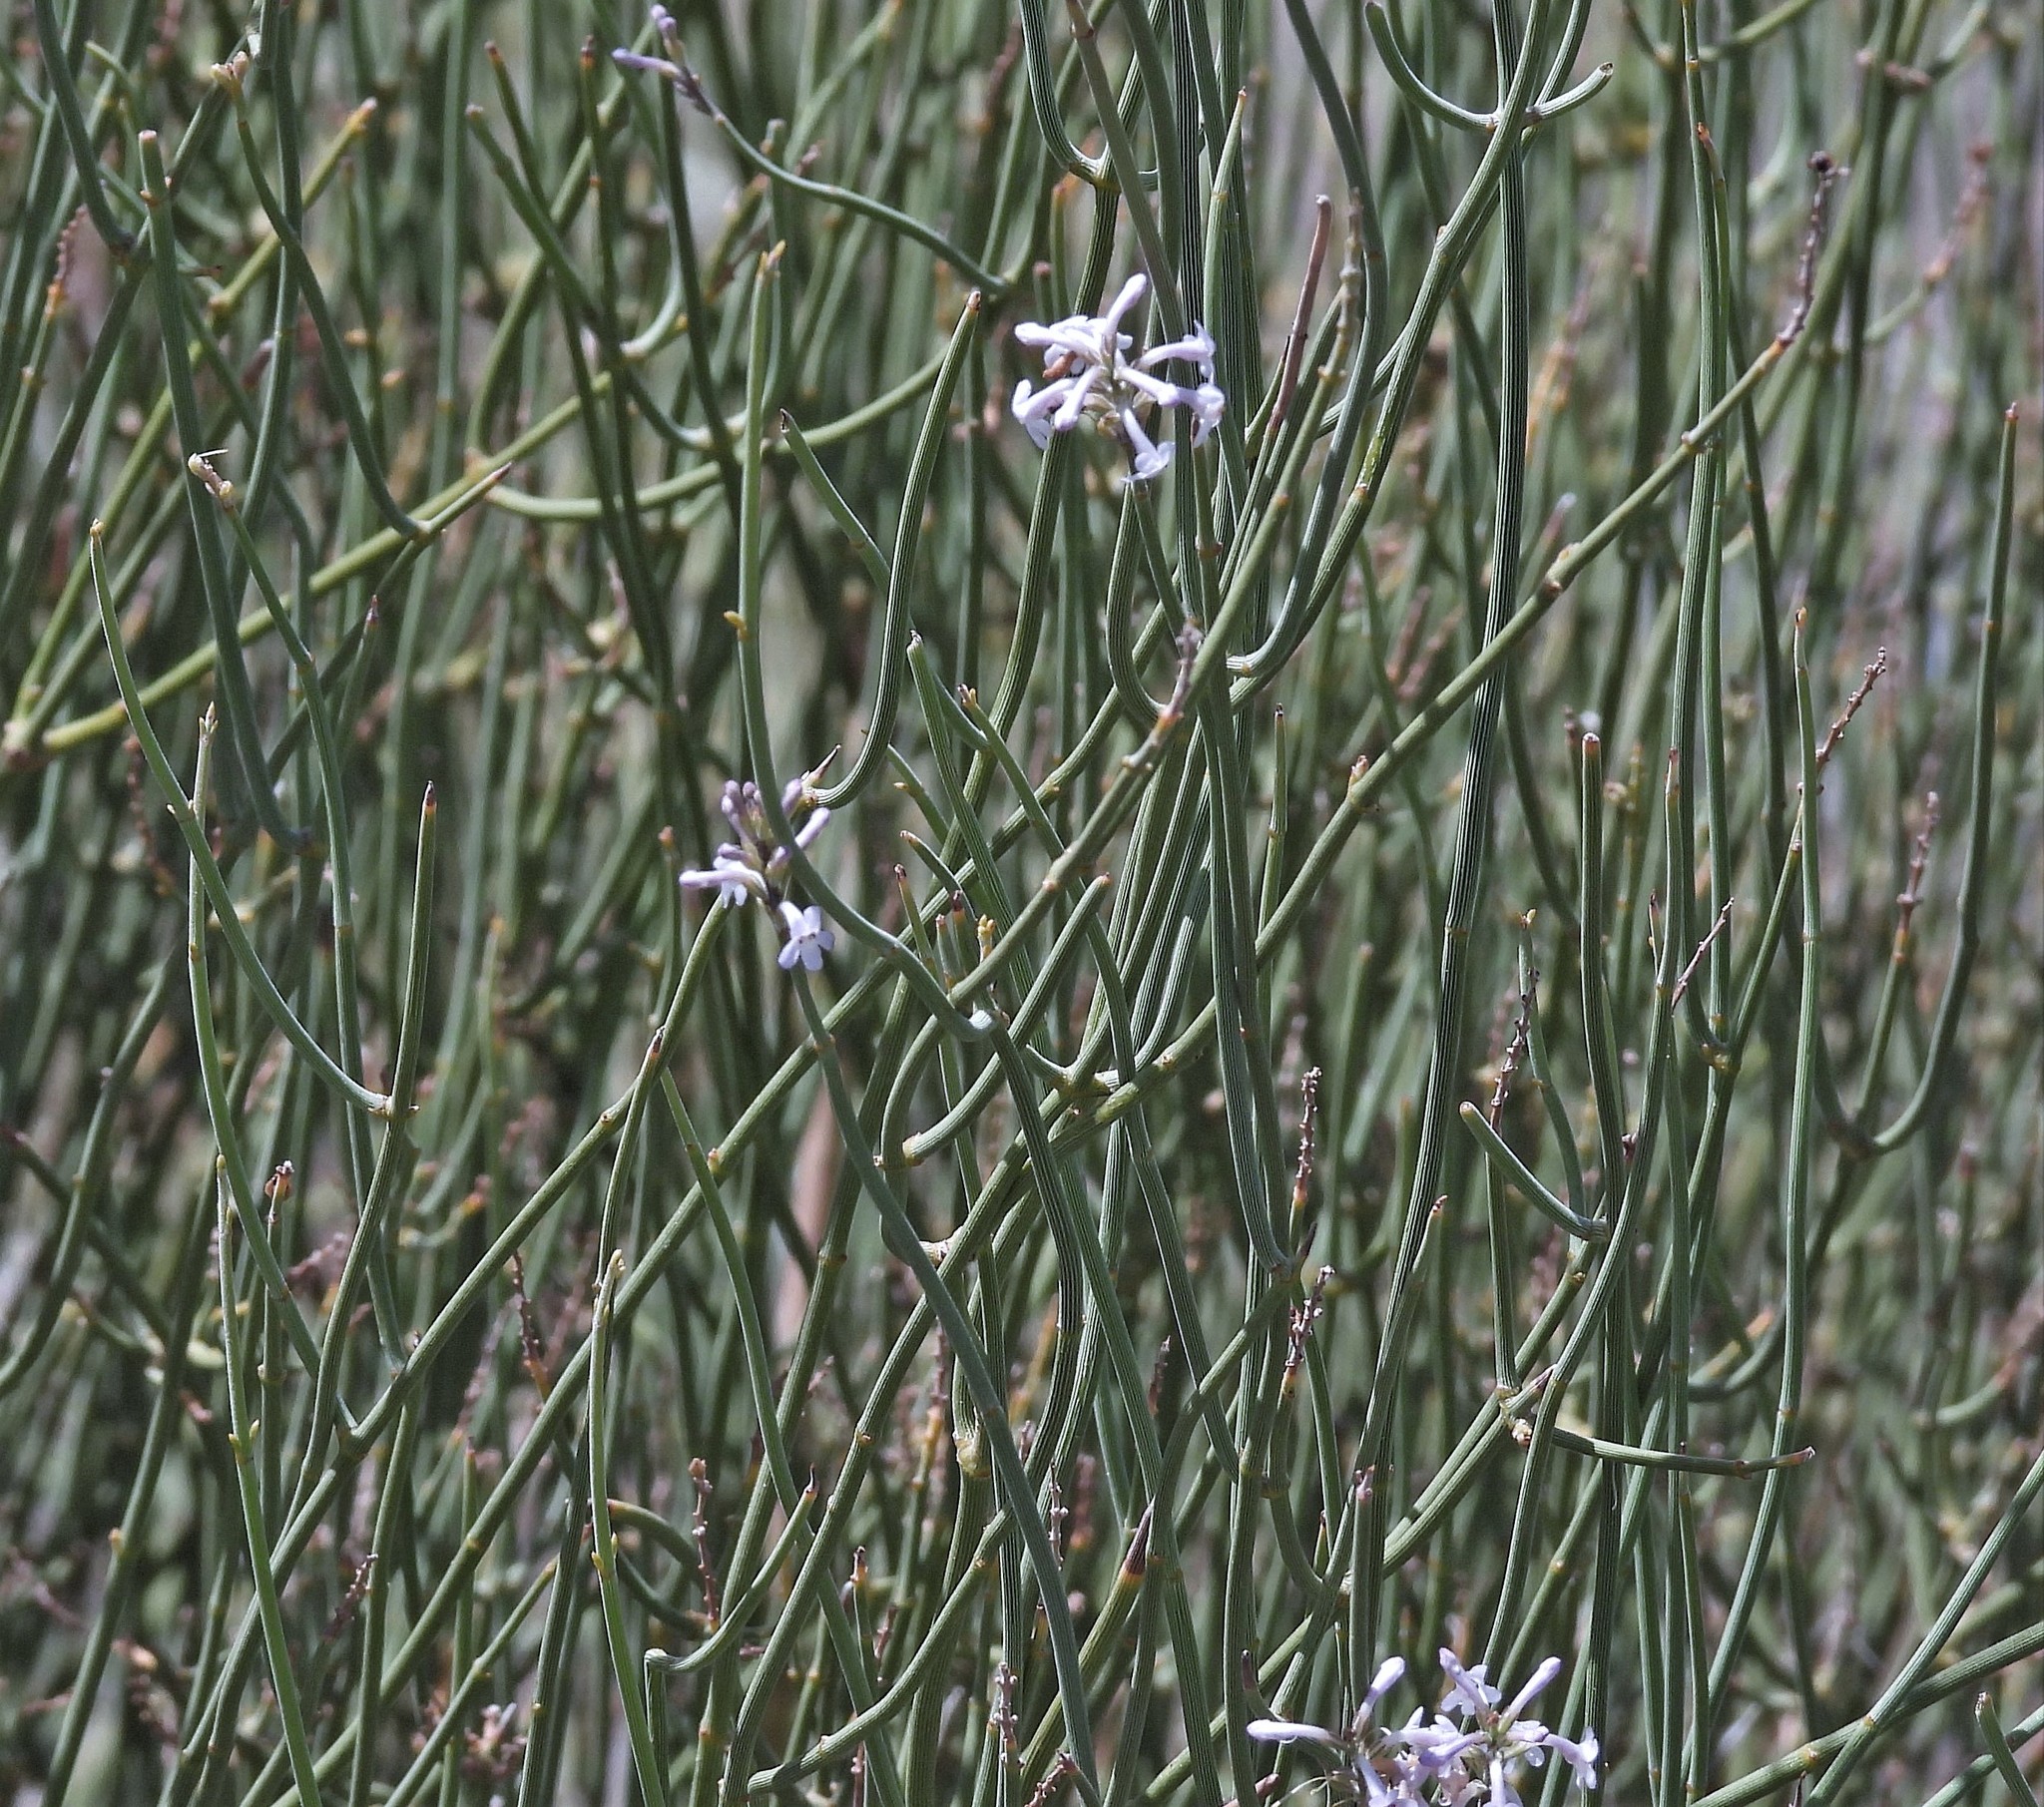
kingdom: Plantae
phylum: Tracheophyta
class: Magnoliopsida
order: Lamiales
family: Verbenaceae
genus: Neosparton
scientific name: Neosparton aphyllum
